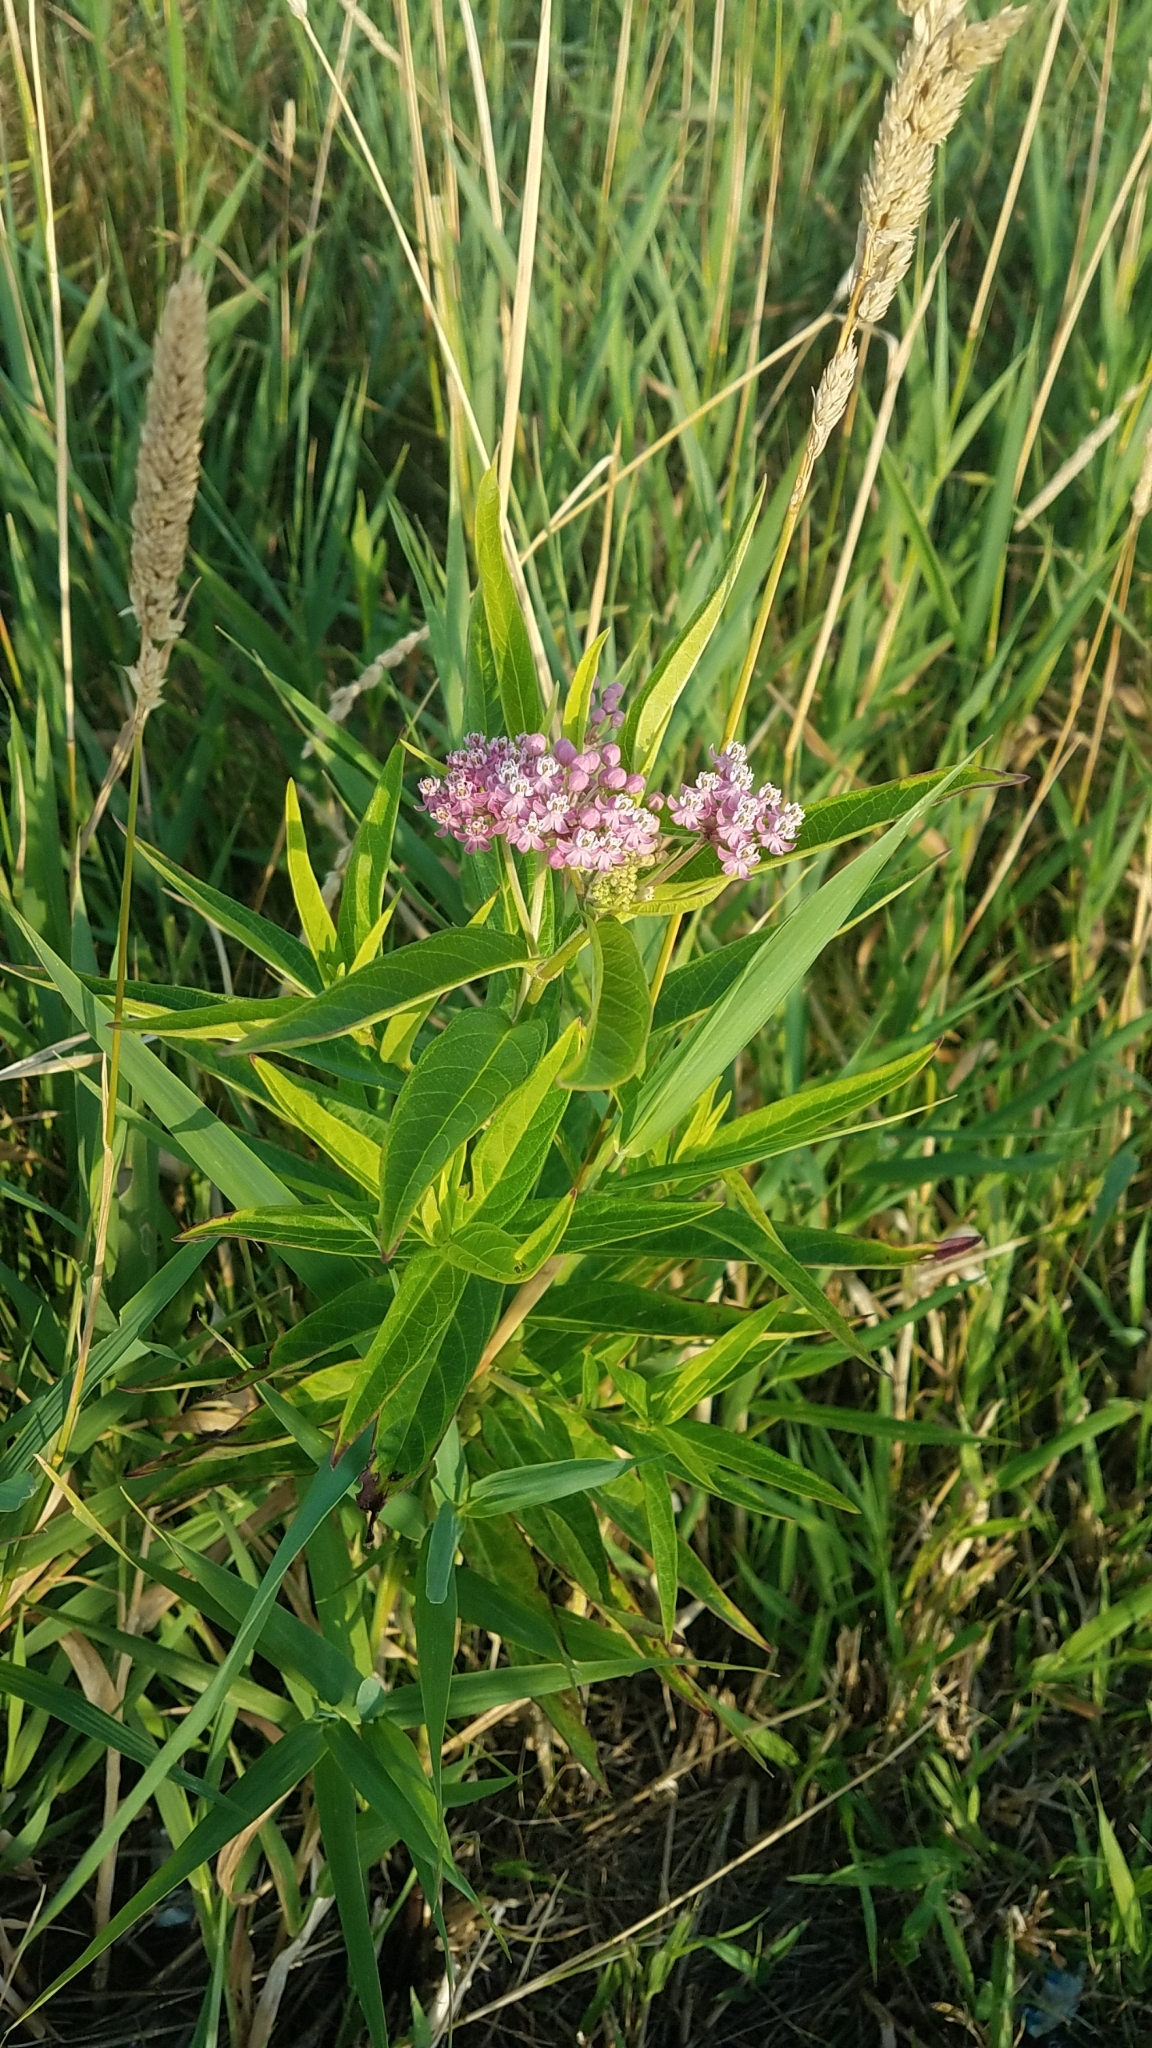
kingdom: Plantae
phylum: Tracheophyta
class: Magnoliopsida
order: Gentianales
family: Apocynaceae
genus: Asclepias
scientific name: Asclepias incarnata
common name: Swamp milkweed
